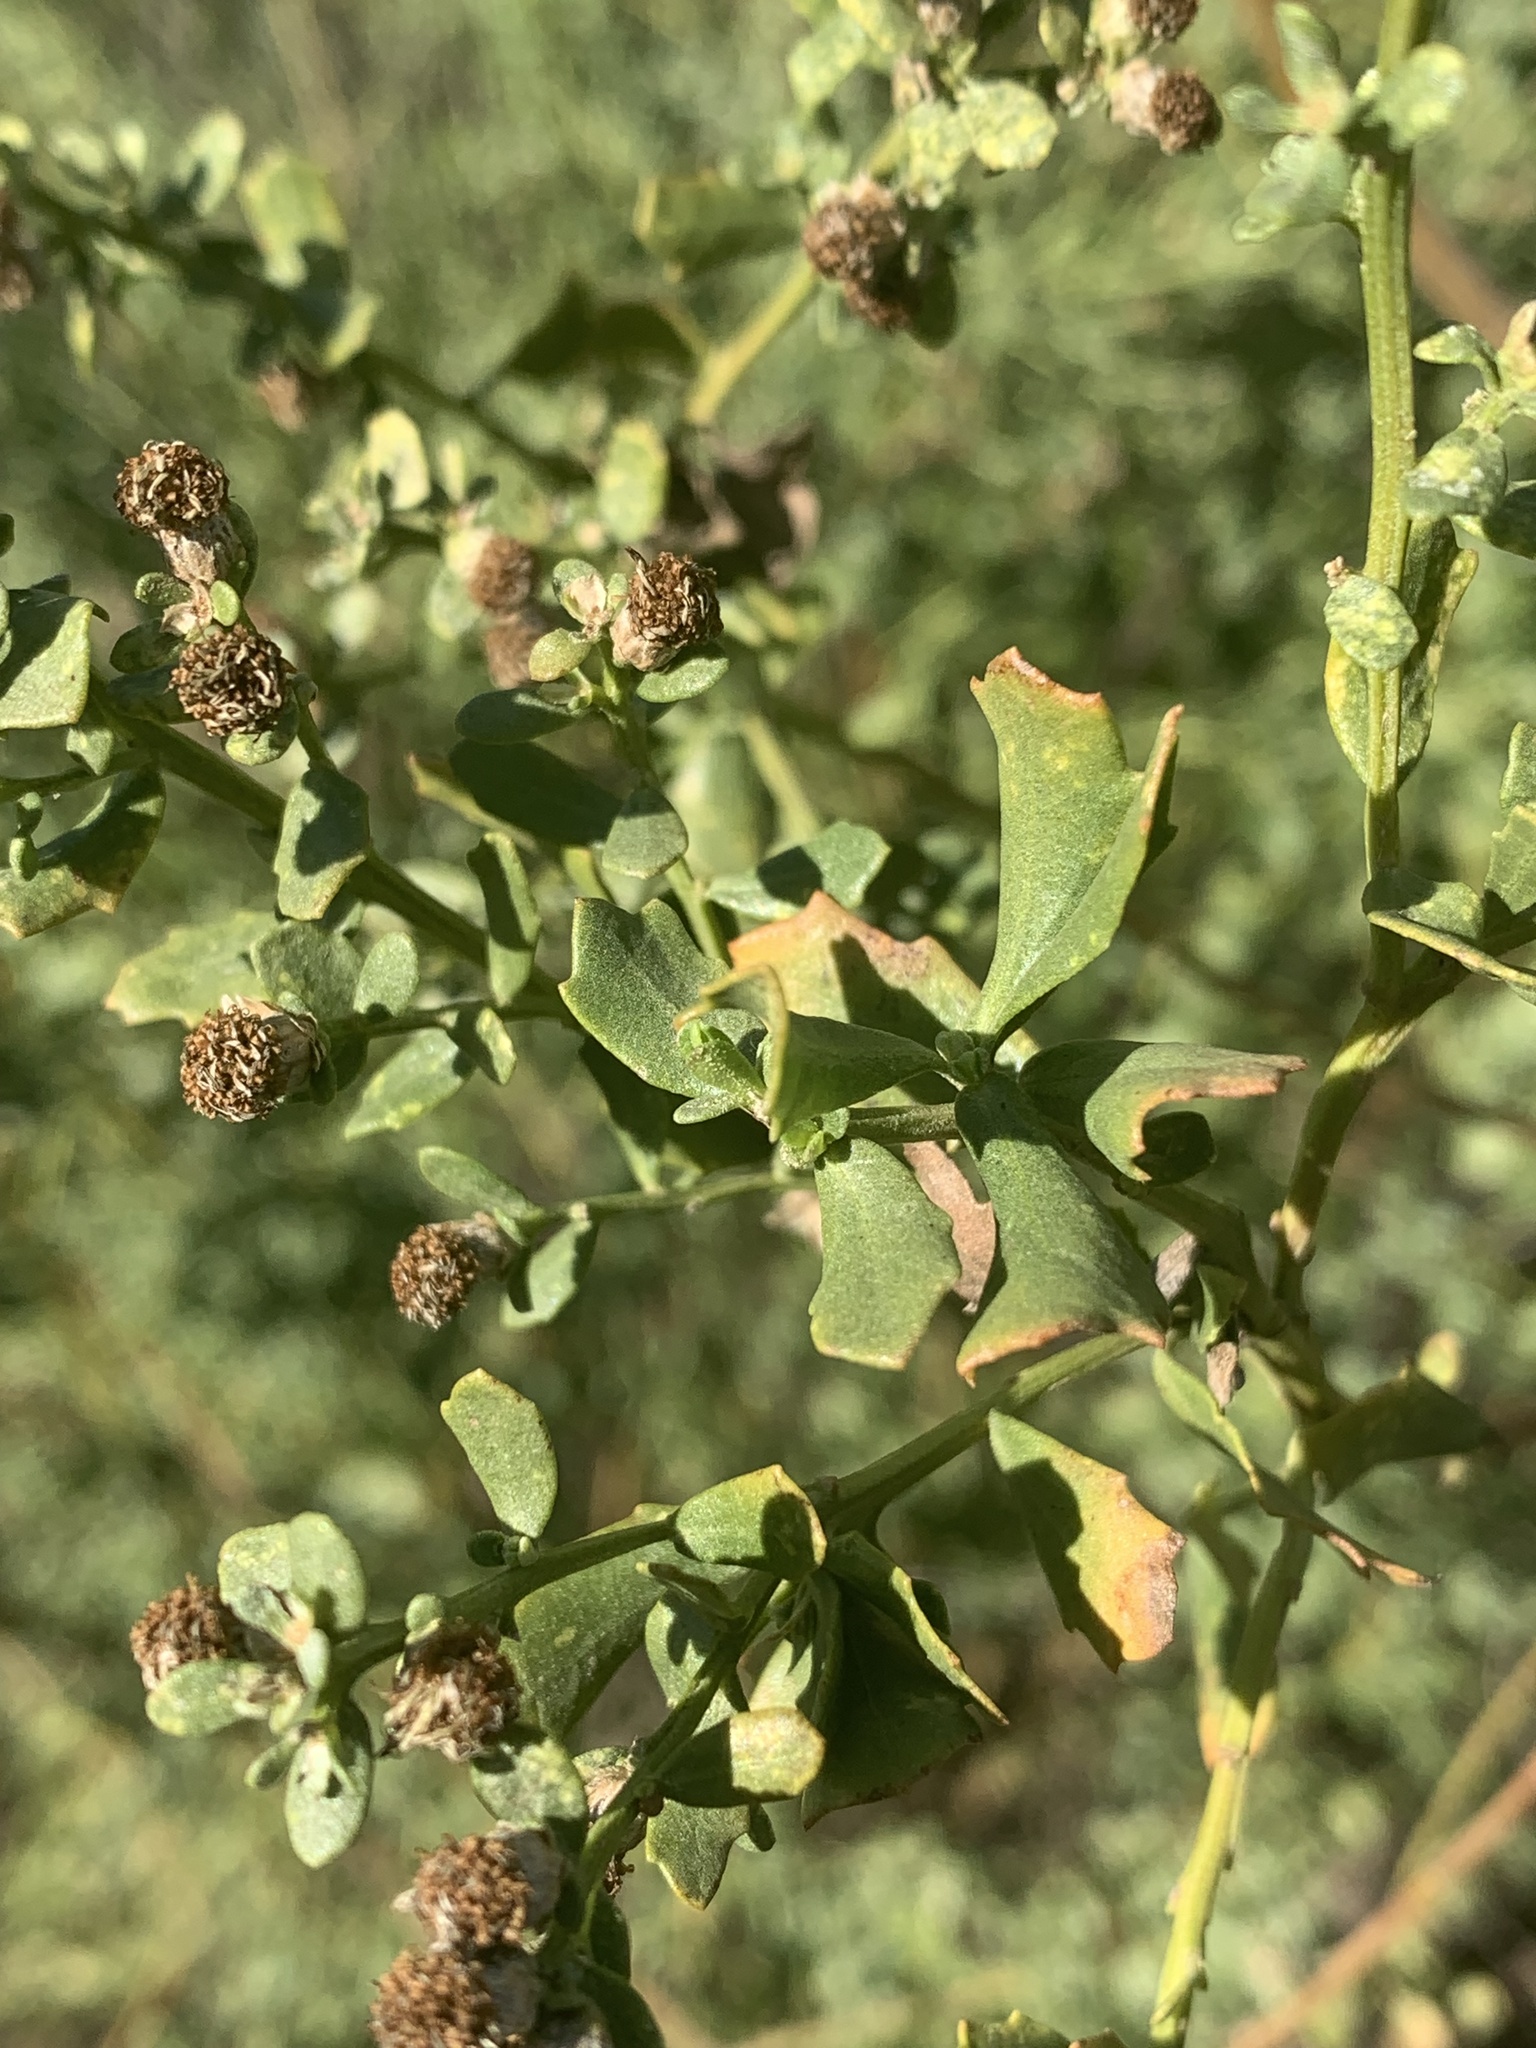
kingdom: Plantae
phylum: Tracheophyta
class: Magnoliopsida
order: Asterales
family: Asteraceae
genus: Baccharis
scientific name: Baccharis pilularis
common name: Coyotebrush
